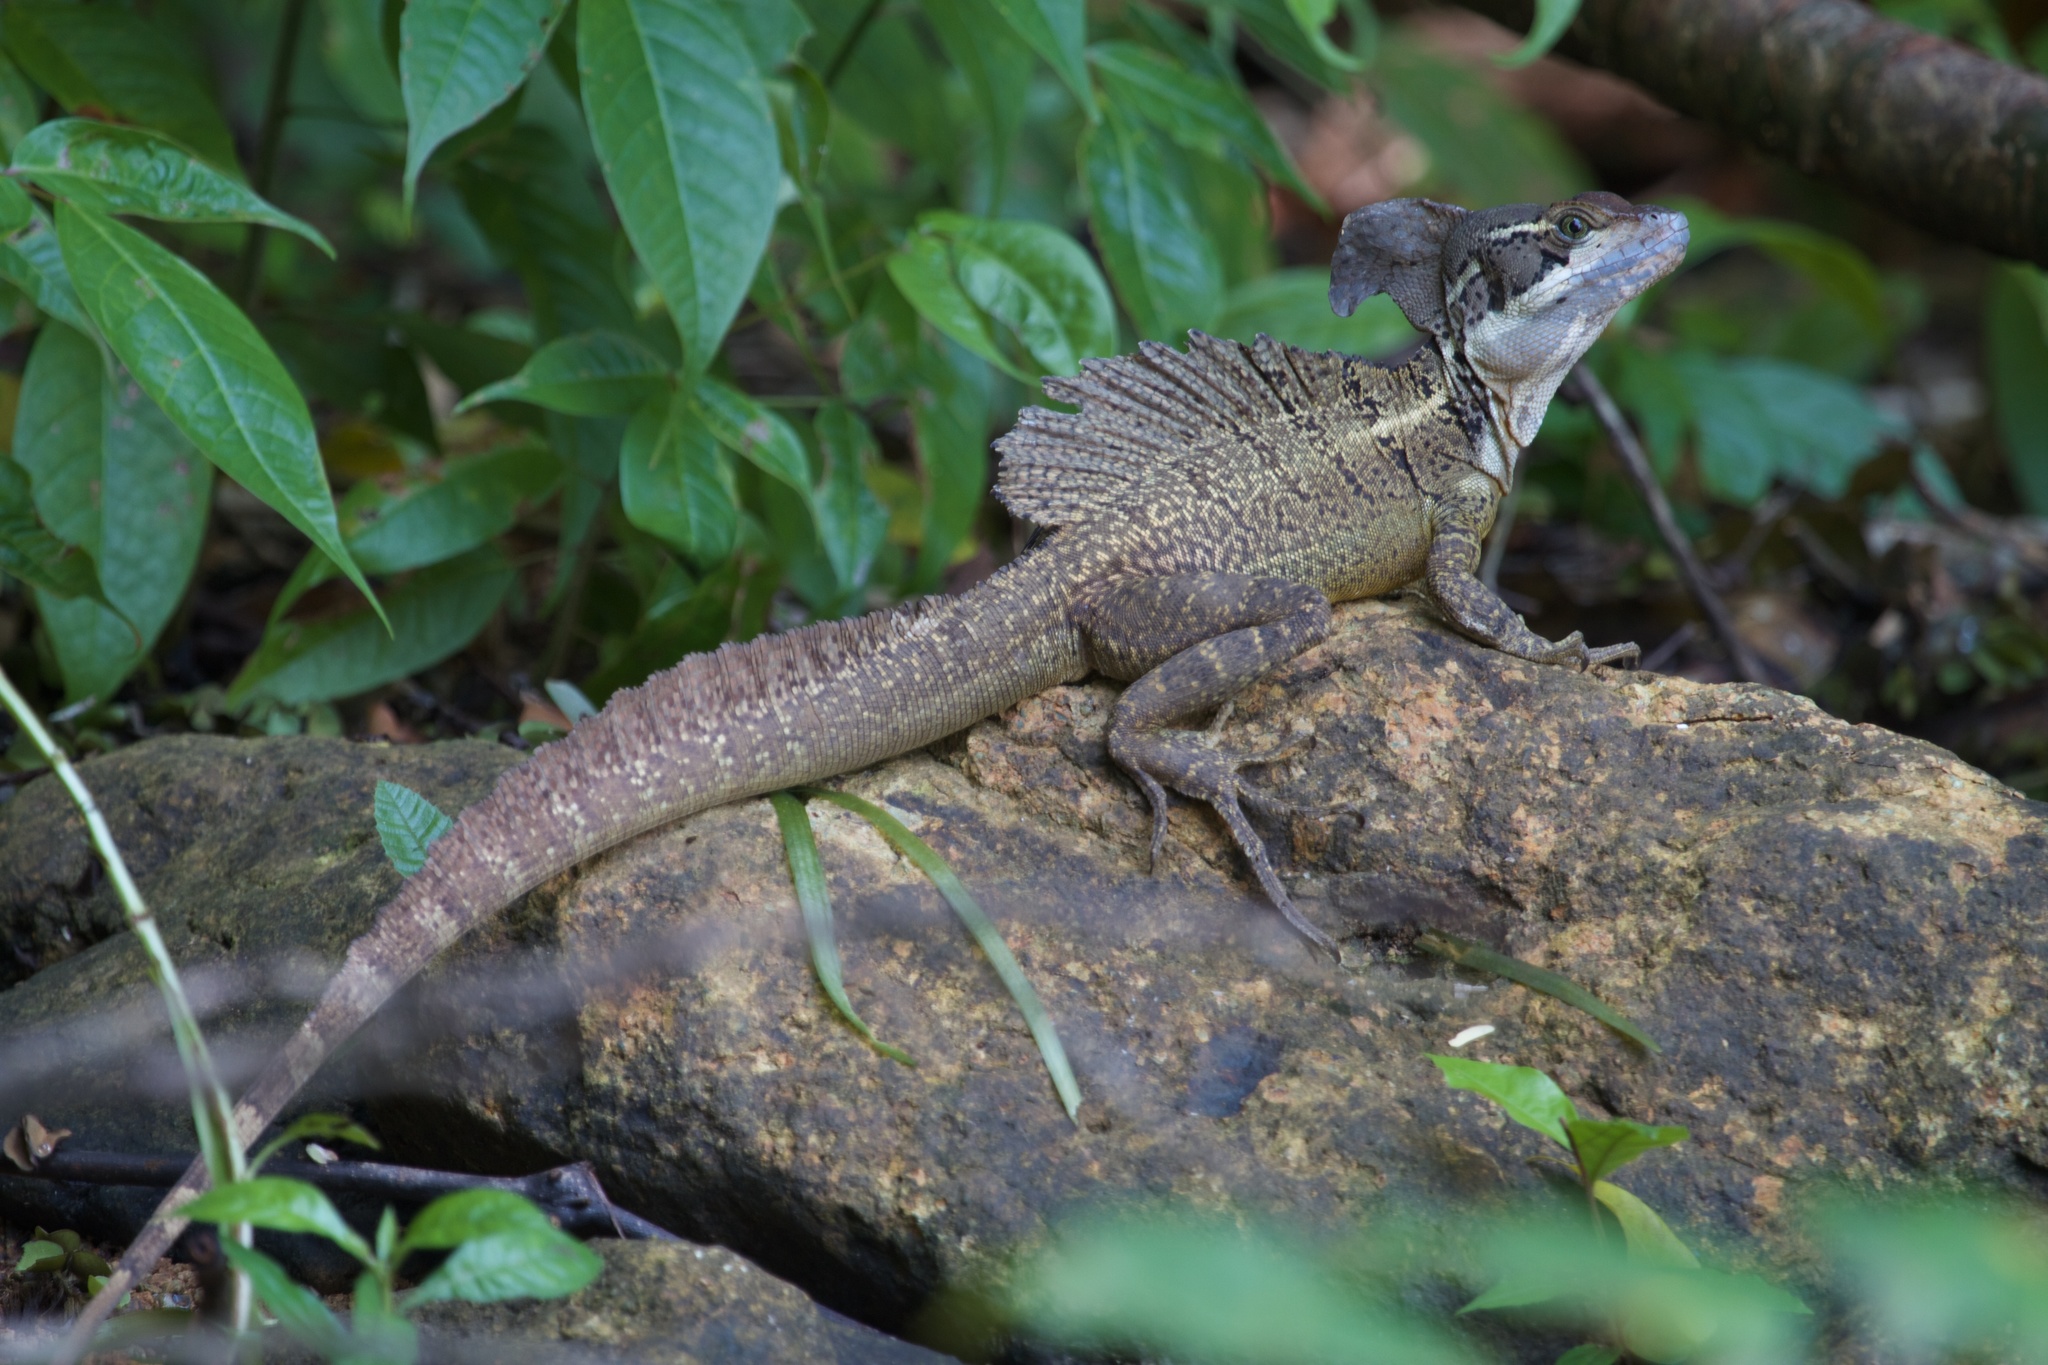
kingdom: Animalia
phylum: Chordata
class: Squamata
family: Corytophanidae
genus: Basiliscus
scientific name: Basiliscus basiliscus
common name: Common basilisk
